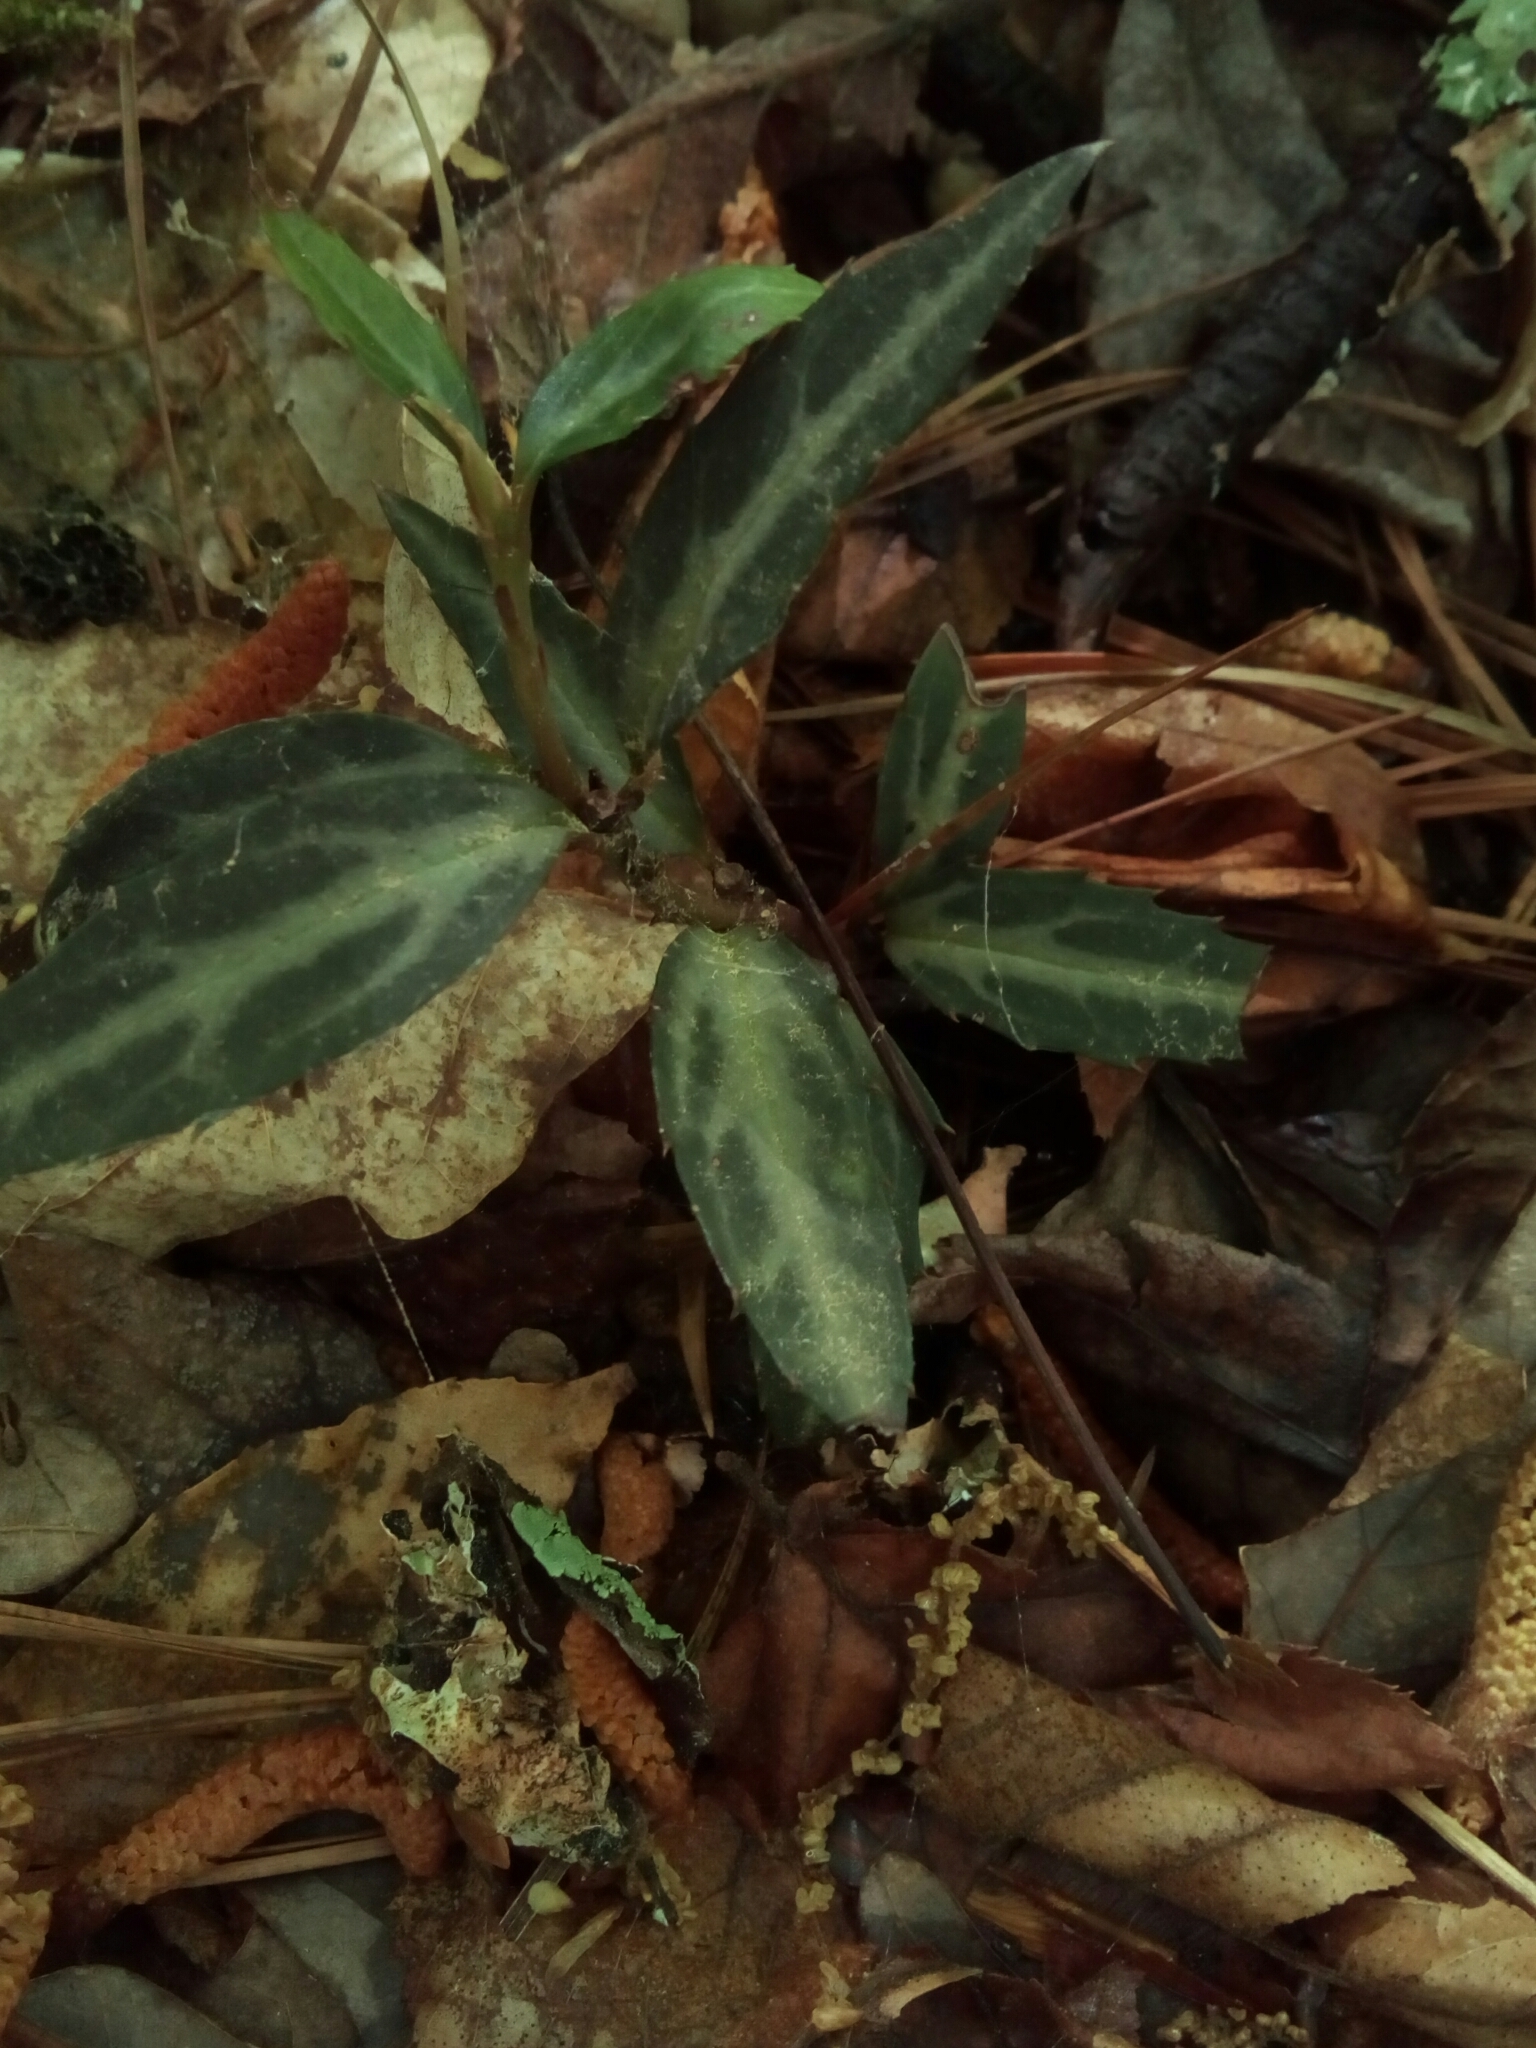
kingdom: Plantae
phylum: Tracheophyta
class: Magnoliopsida
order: Ericales
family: Ericaceae
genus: Chimaphila
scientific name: Chimaphila maculata
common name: Spotted pipsissewa
